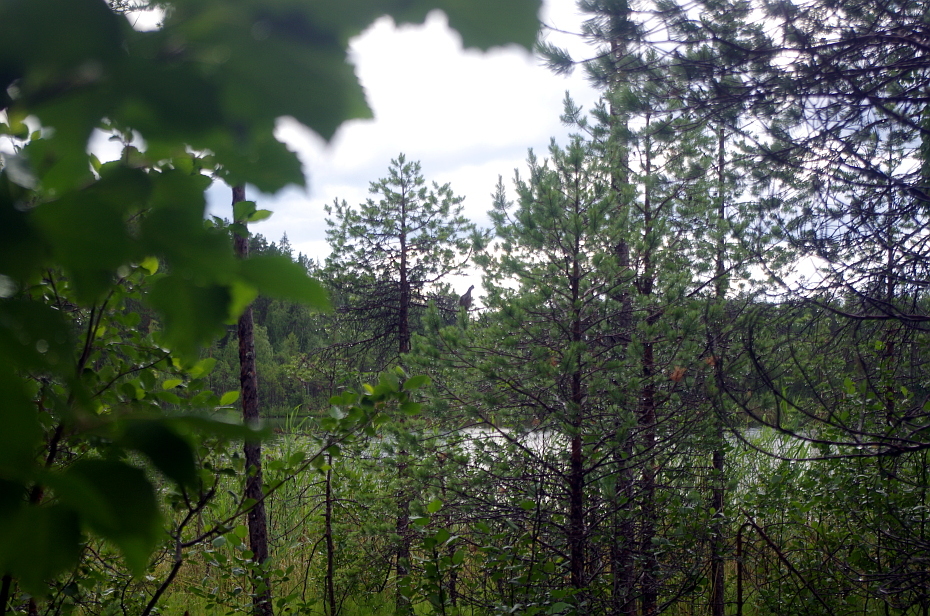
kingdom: Animalia
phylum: Chordata
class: Aves
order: Galliformes
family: Phasianidae
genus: Tetrastes
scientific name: Tetrastes bonasia
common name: Hazel grouse
